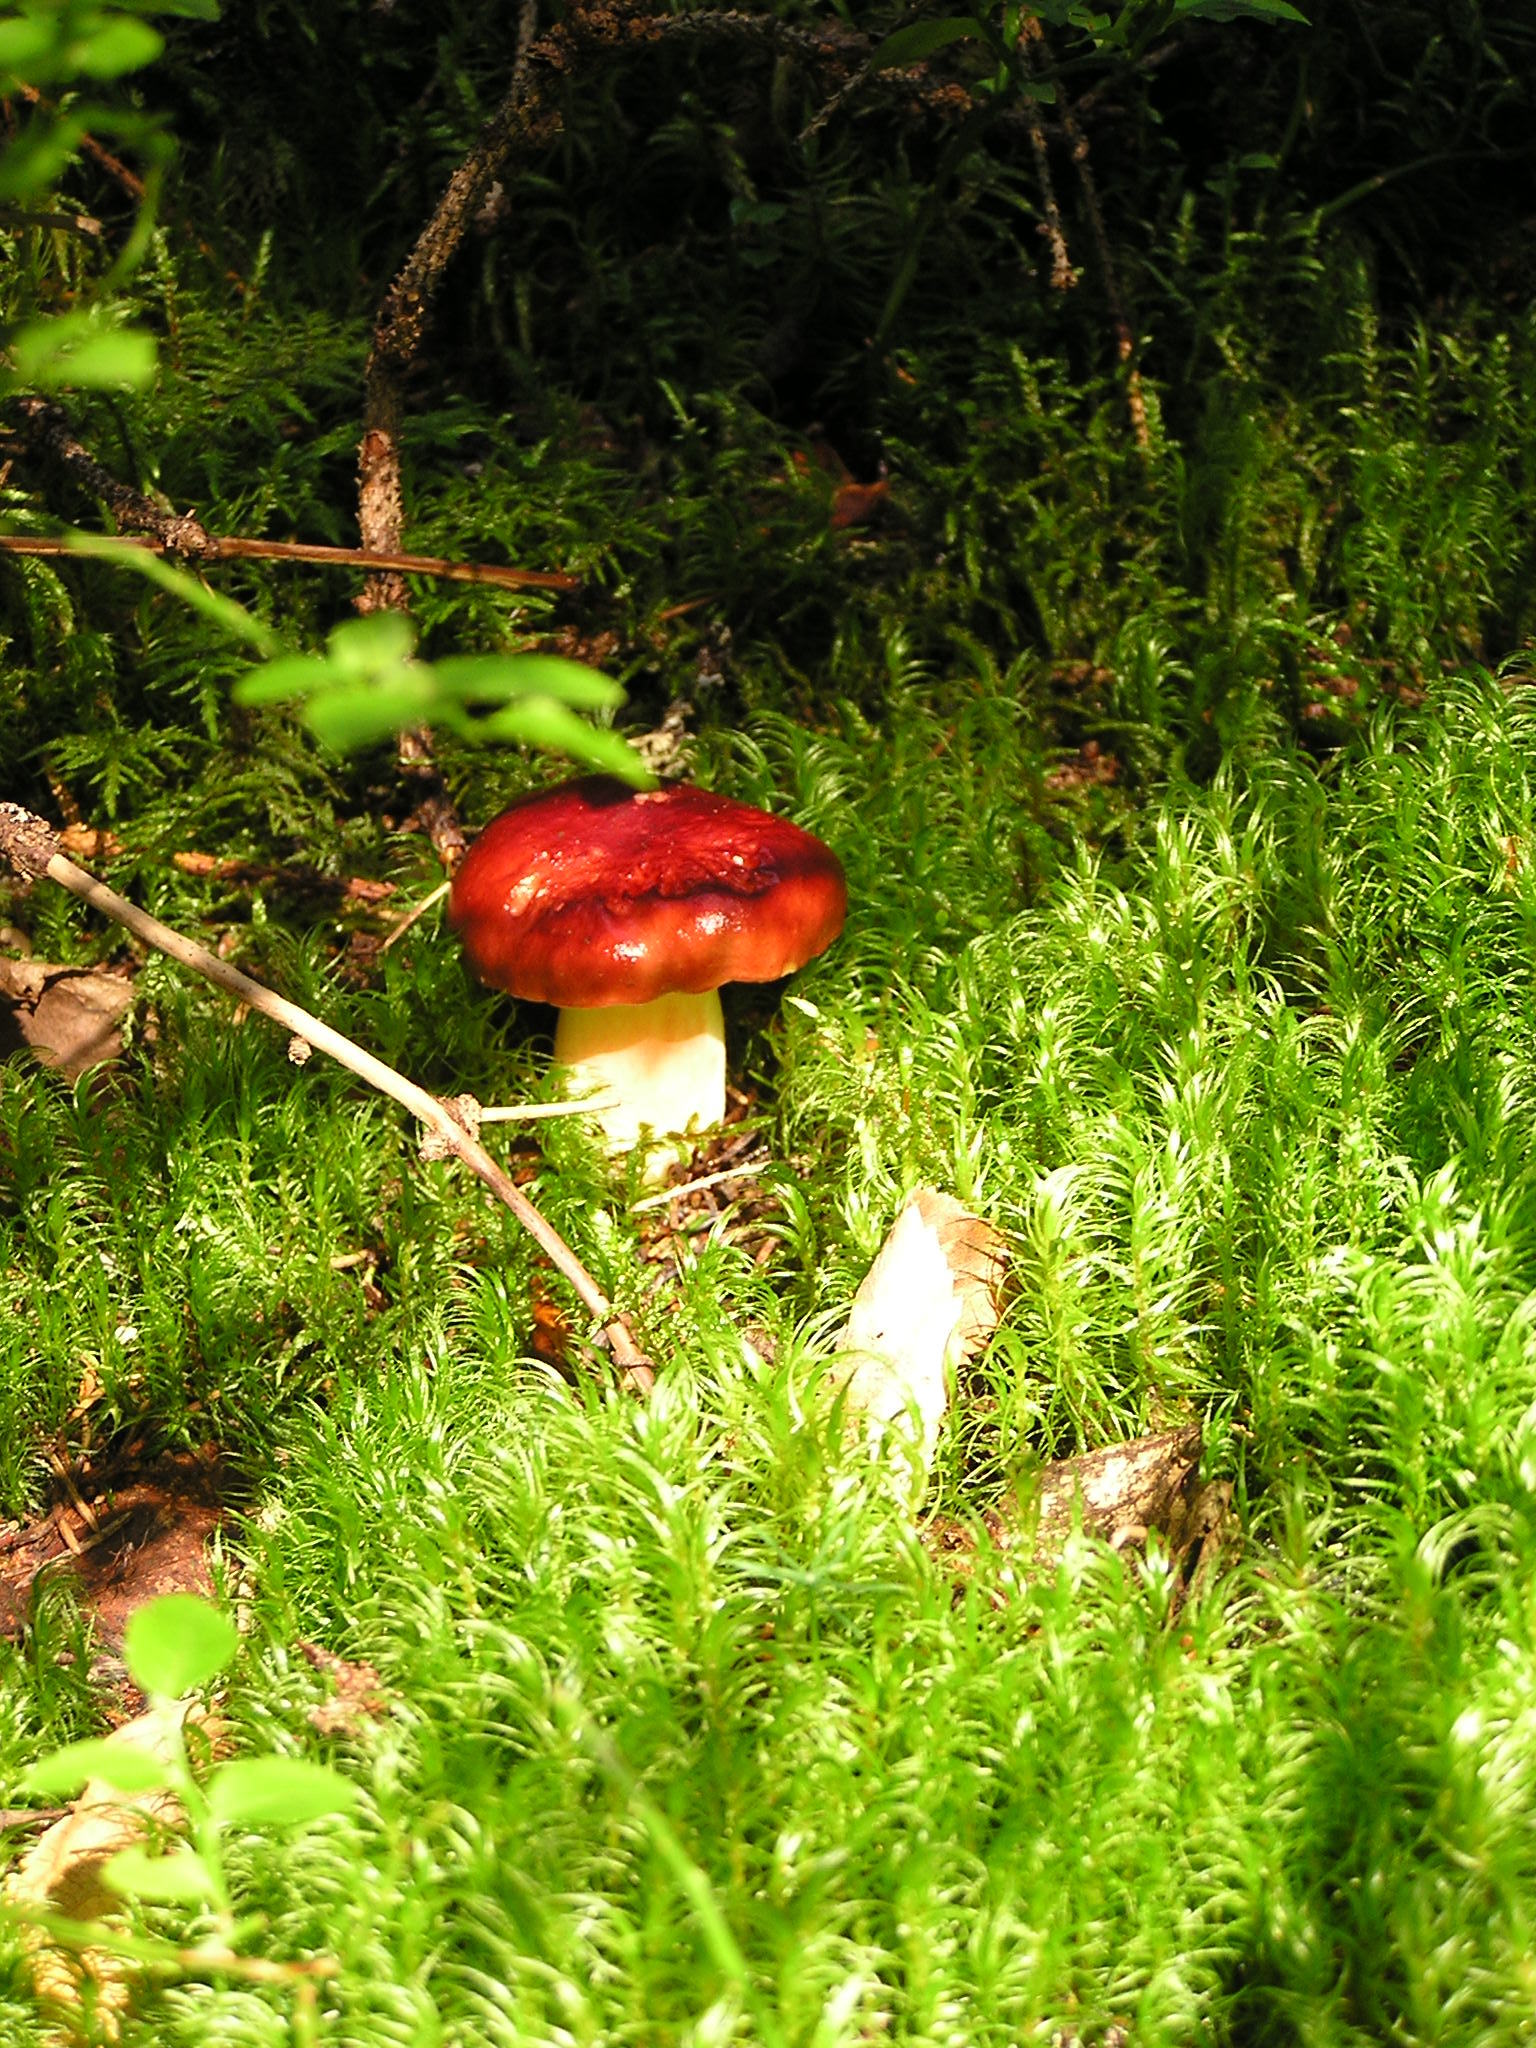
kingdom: Fungi
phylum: Basidiomycota
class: Agaricomycetes
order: Russulales
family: Russulaceae
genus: Russula
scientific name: Russula
